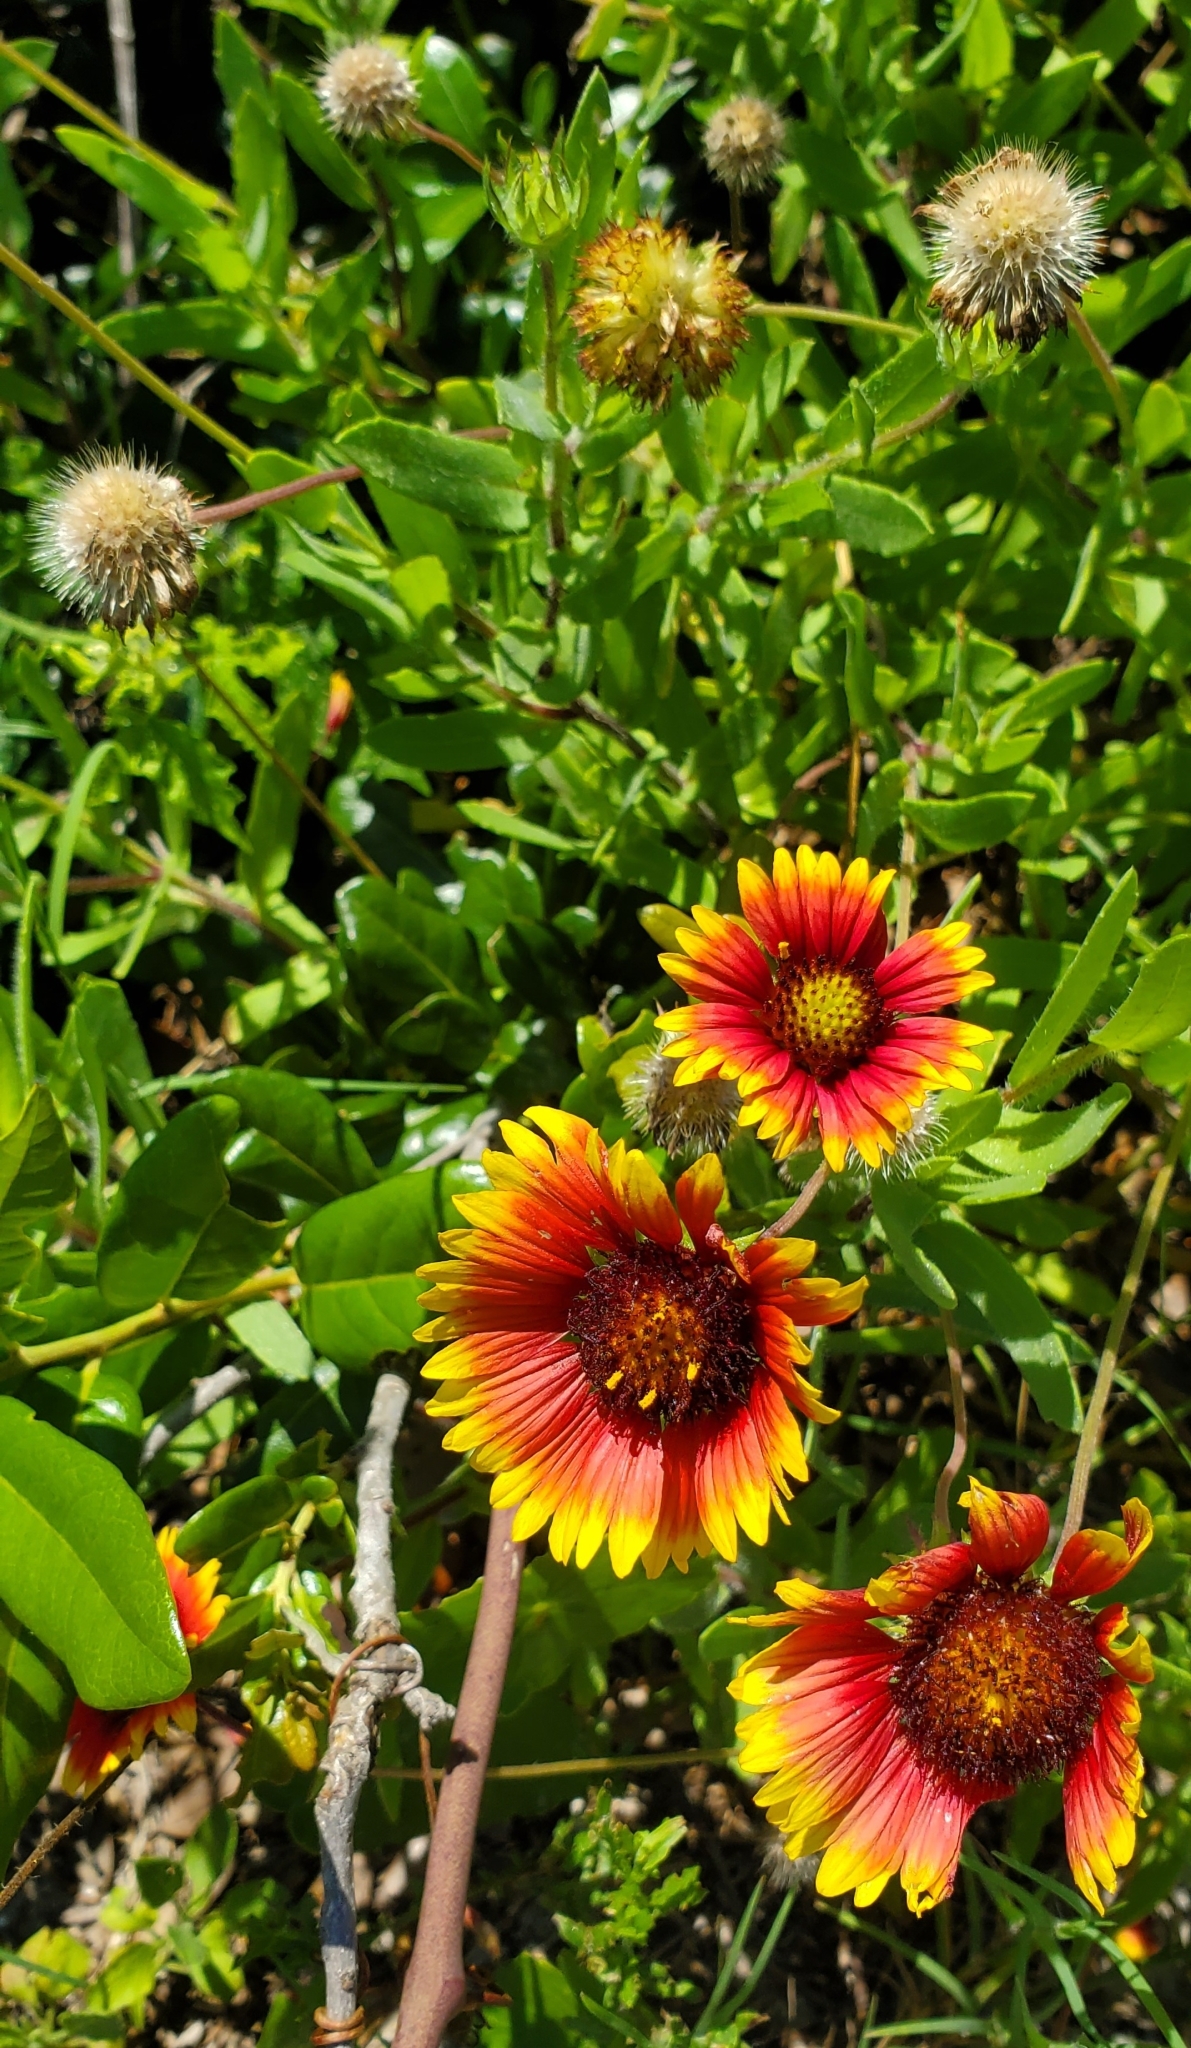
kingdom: Plantae
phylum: Tracheophyta
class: Magnoliopsida
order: Asterales
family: Asteraceae
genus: Gaillardia
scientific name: Gaillardia pulchella
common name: Firewheel
